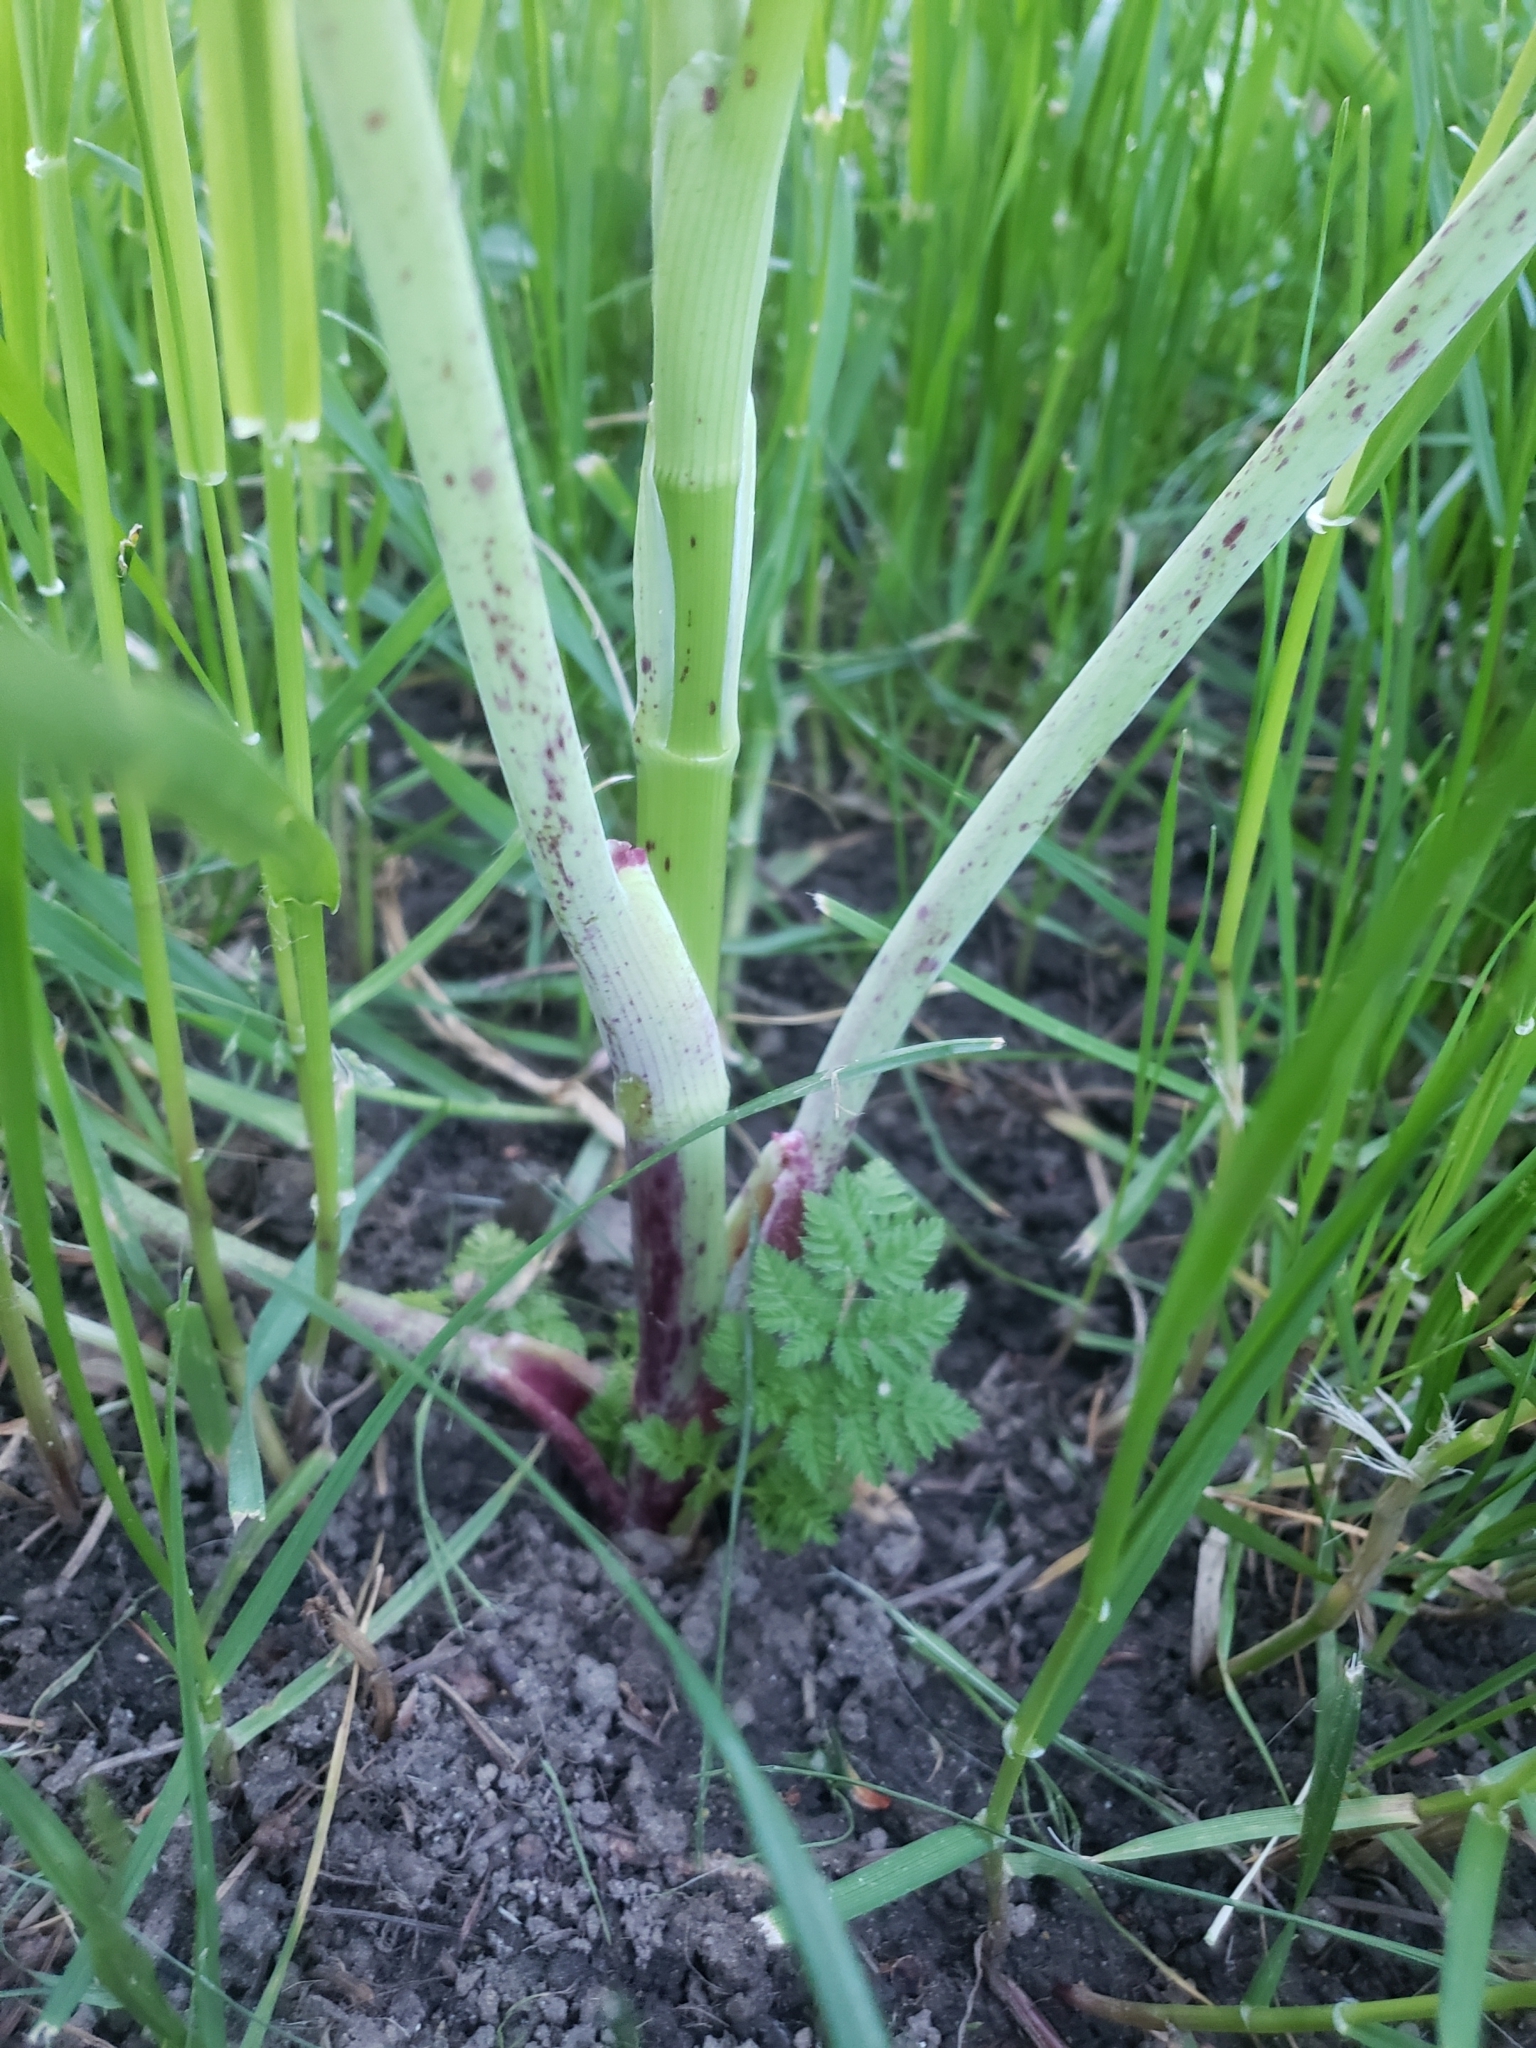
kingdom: Plantae
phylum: Tracheophyta
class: Magnoliopsida
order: Apiales
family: Apiaceae
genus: Conium
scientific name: Conium maculatum
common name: Hemlock
